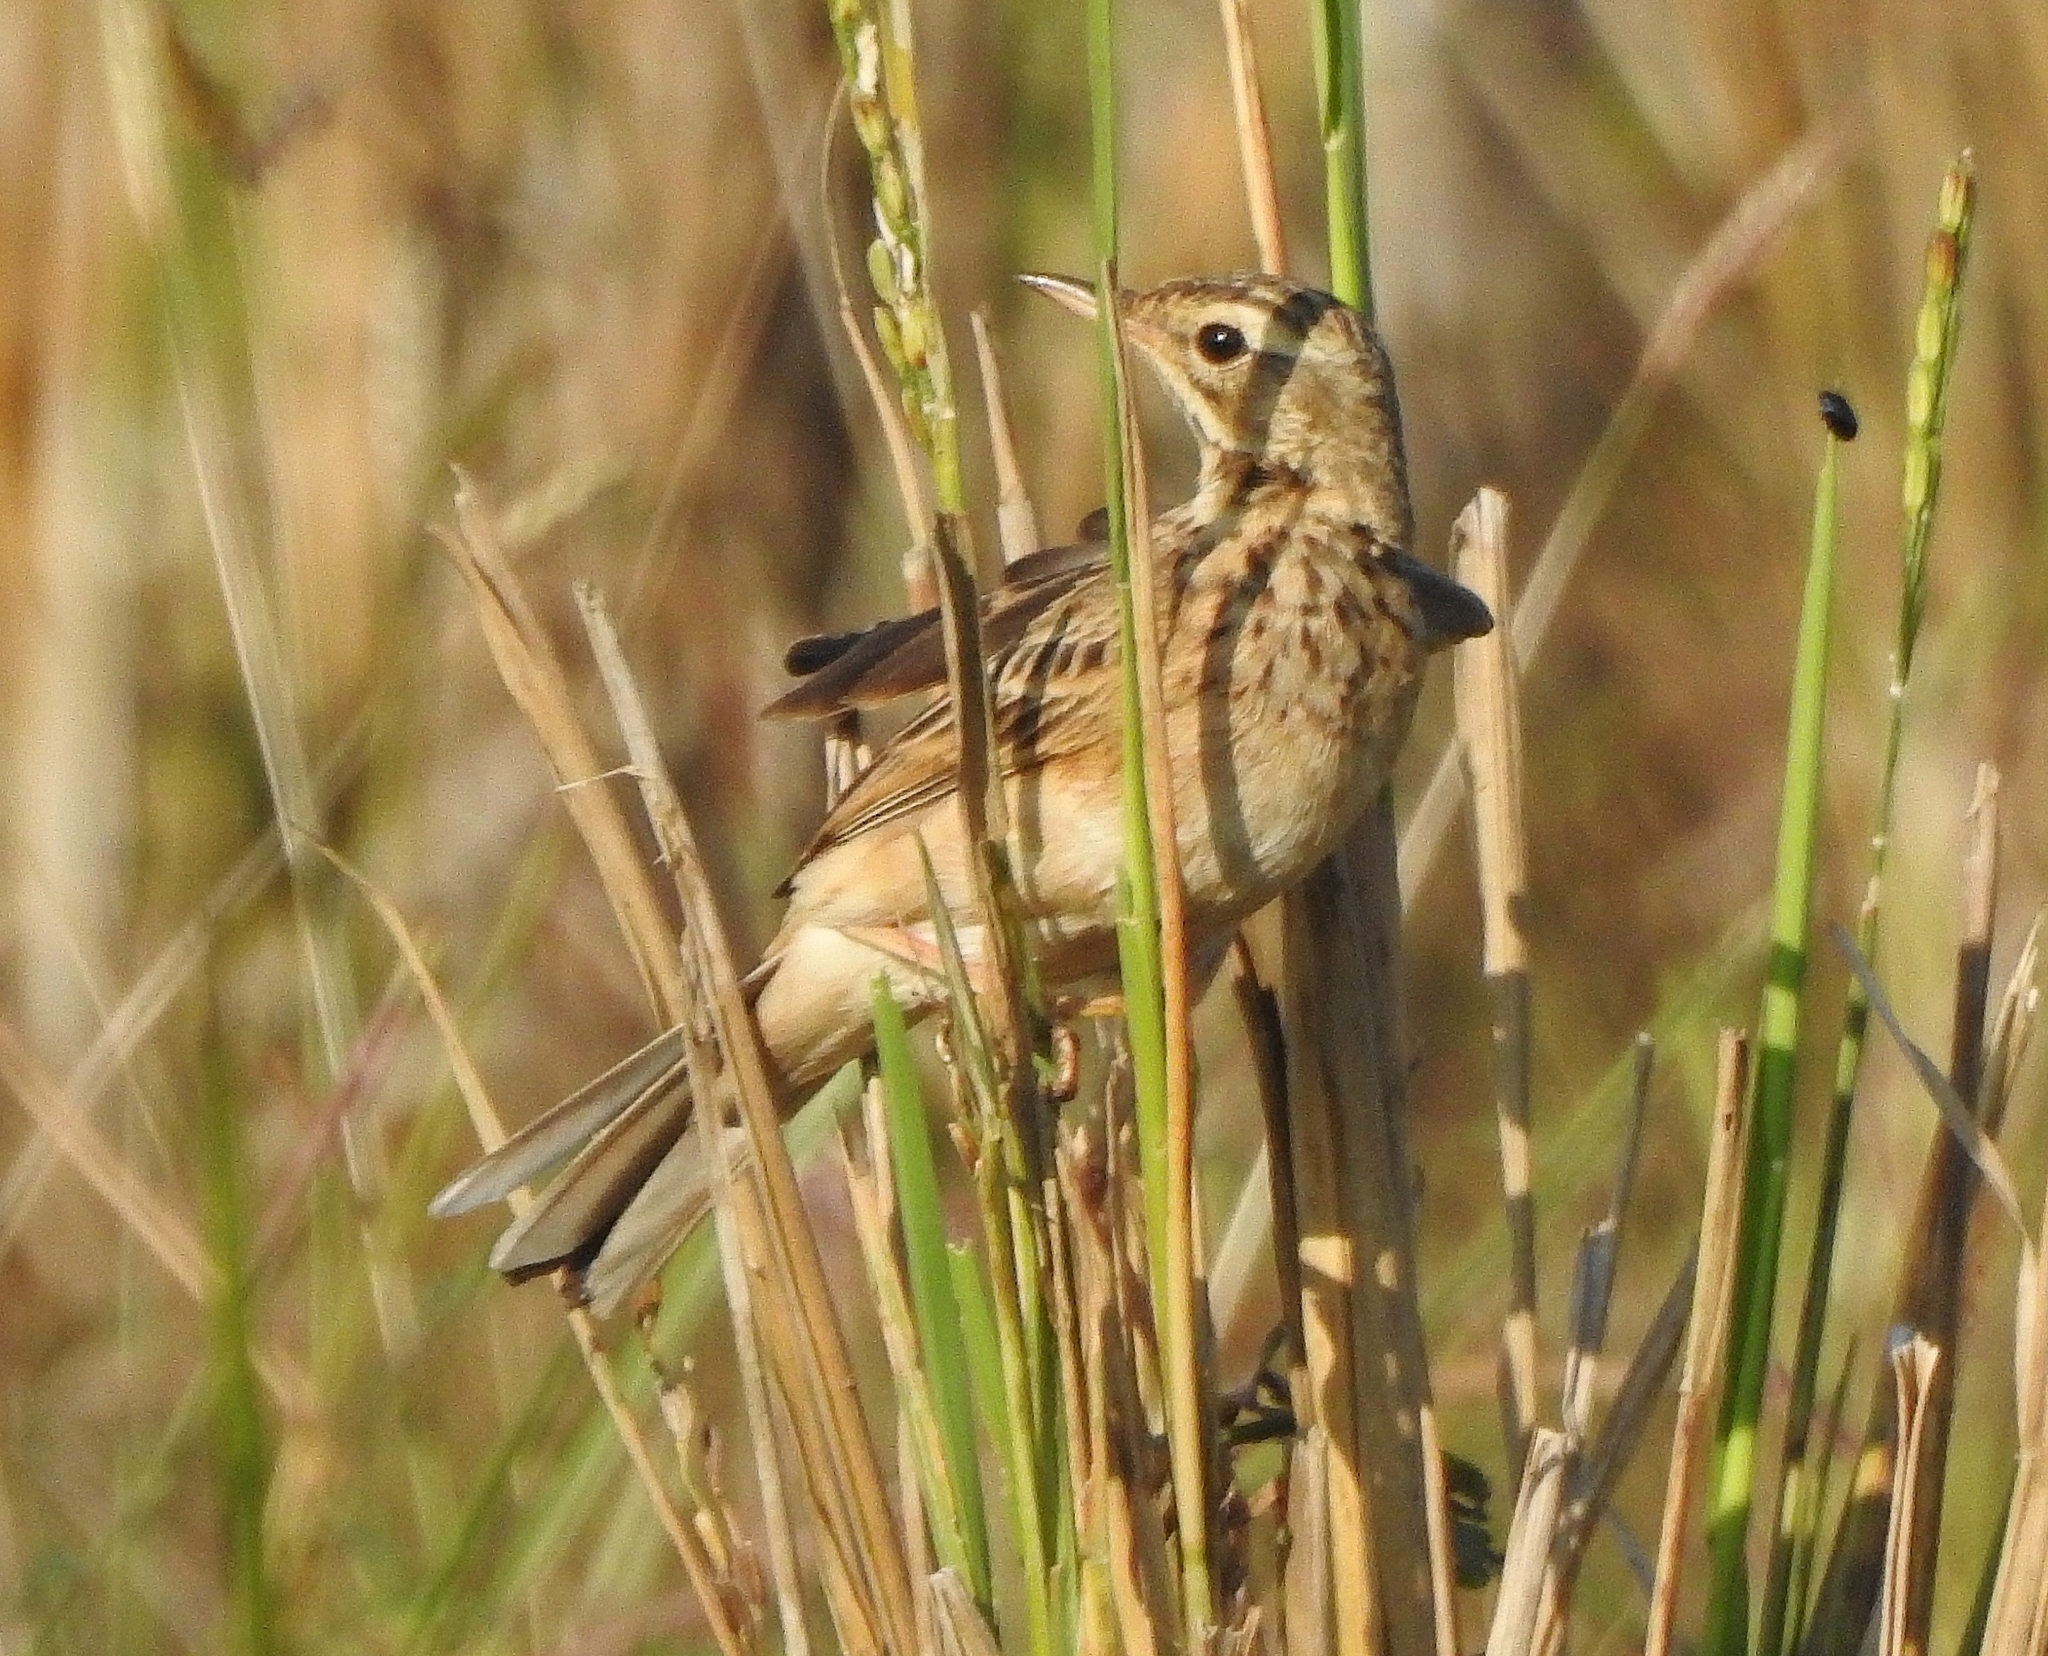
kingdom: Animalia
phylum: Chordata
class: Aves
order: Passeriformes
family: Motacillidae
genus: Anthus
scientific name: Anthus rufulus
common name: Paddyfield pipit
